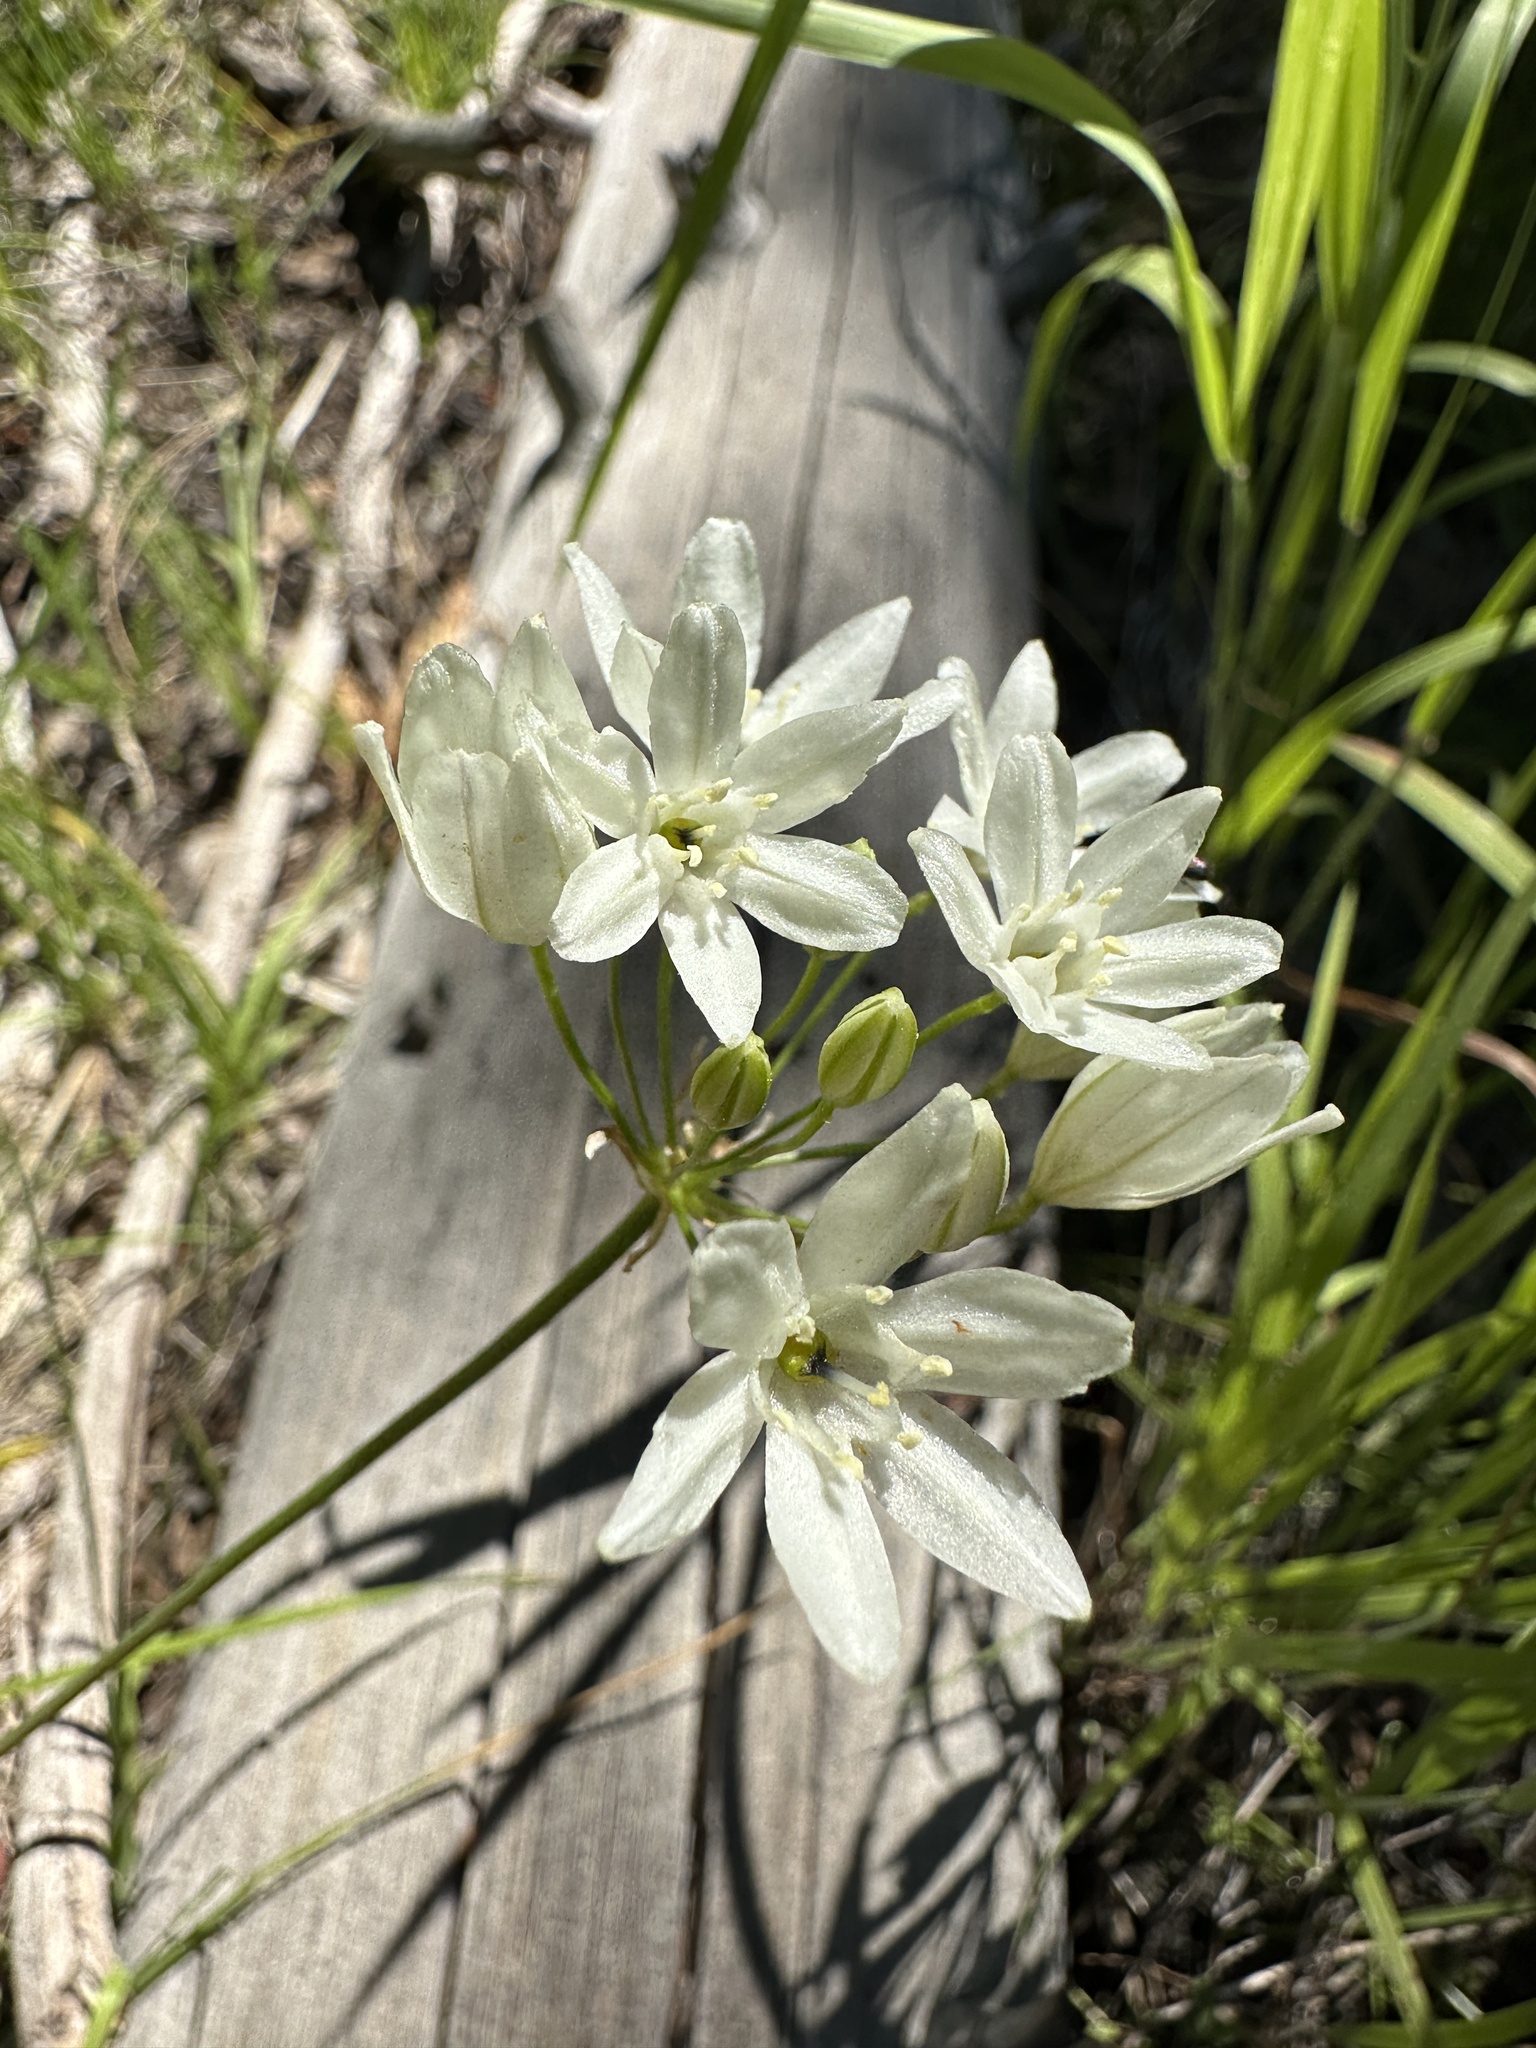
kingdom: Plantae
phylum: Tracheophyta
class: Liliopsida
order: Asparagales
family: Asparagaceae
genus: Triteleia
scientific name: Triteleia hyacinthina
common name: White brodiaea
